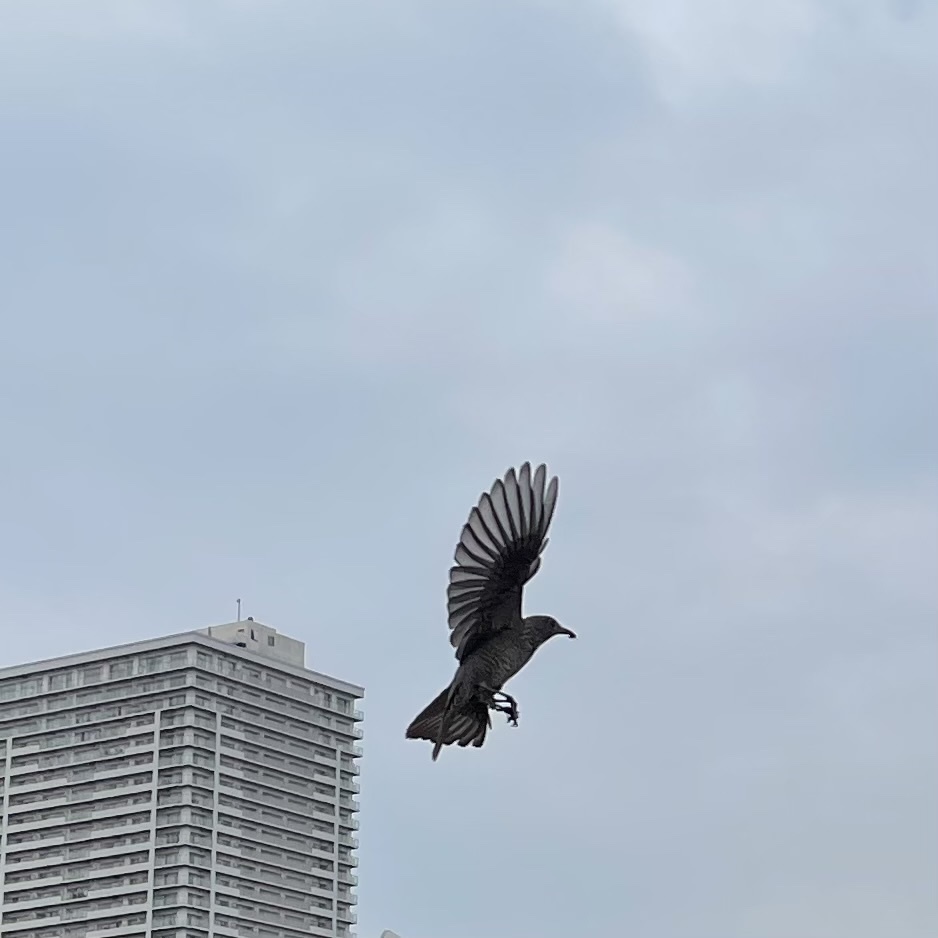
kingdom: Animalia
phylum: Chordata
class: Aves
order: Passeriformes
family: Muscicapidae
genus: Monticola
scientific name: Monticola solitarius
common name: Blue rock thrush
